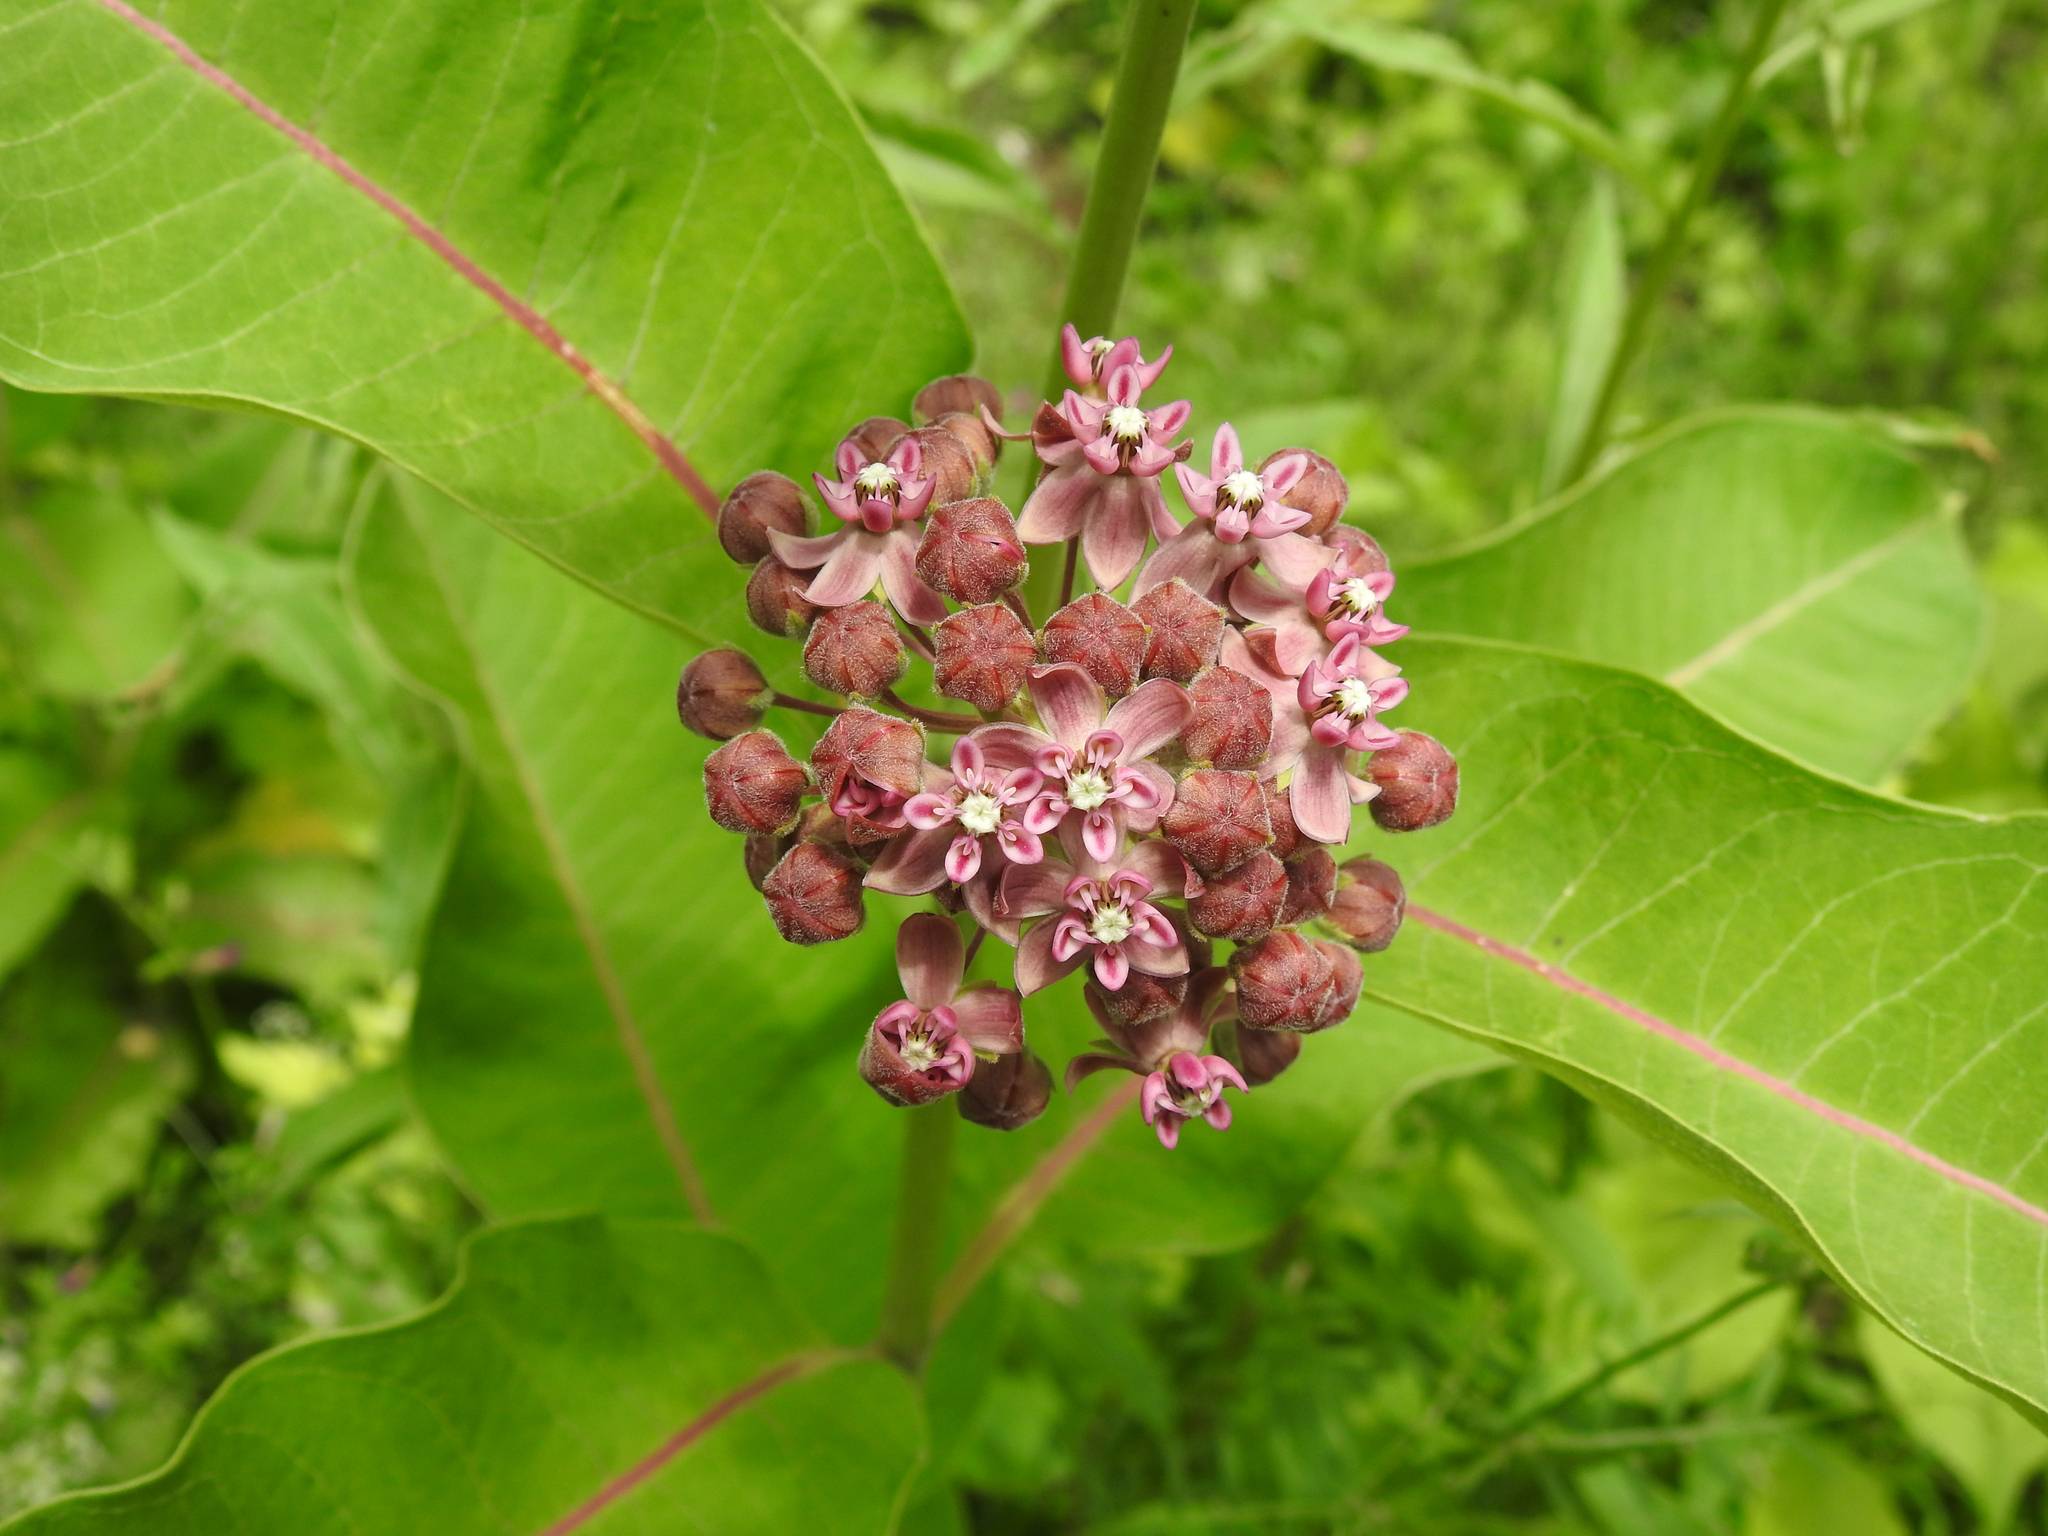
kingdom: Plantae
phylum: Tracheophyta
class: Magnoliopsida
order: Gentianales
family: Apocynaceae
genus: Asclepias
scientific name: Asclepias syriaca
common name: Common milkweed
